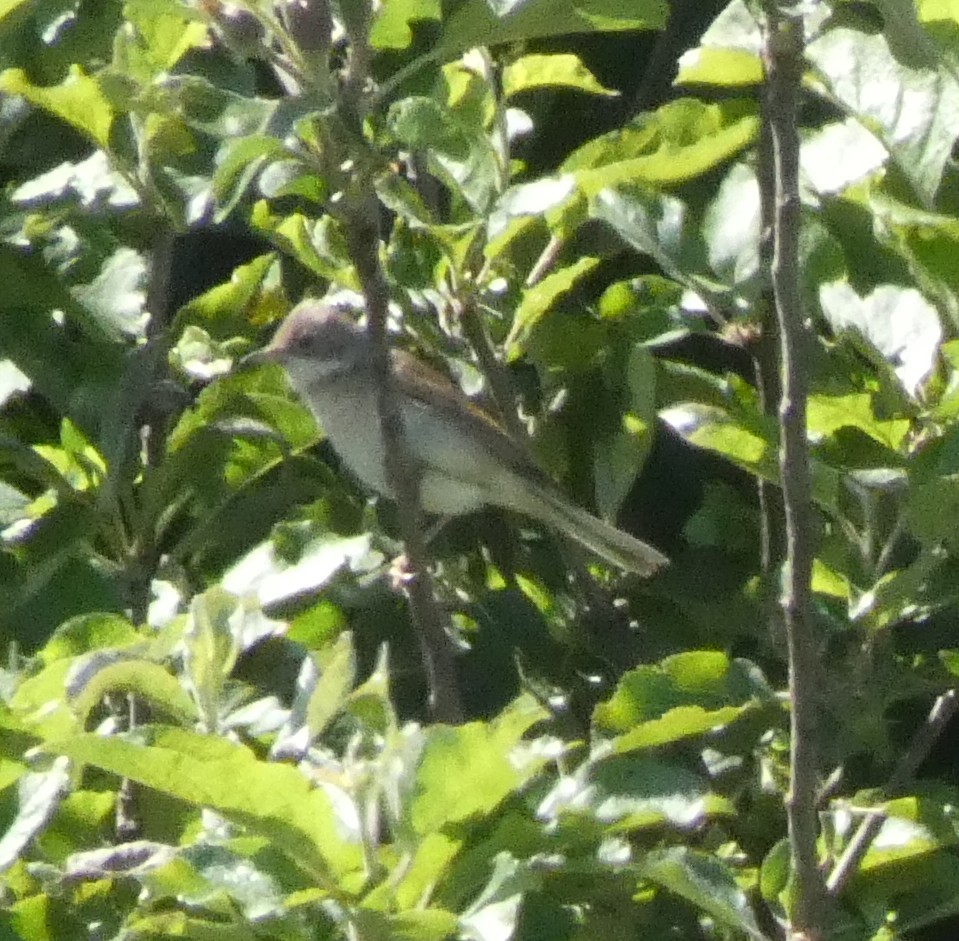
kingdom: Animalia
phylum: Chordata
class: Aves
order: Passeriformes
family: Sylviidae
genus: Sylvia
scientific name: Sylvia communis
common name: Common whitethroat
